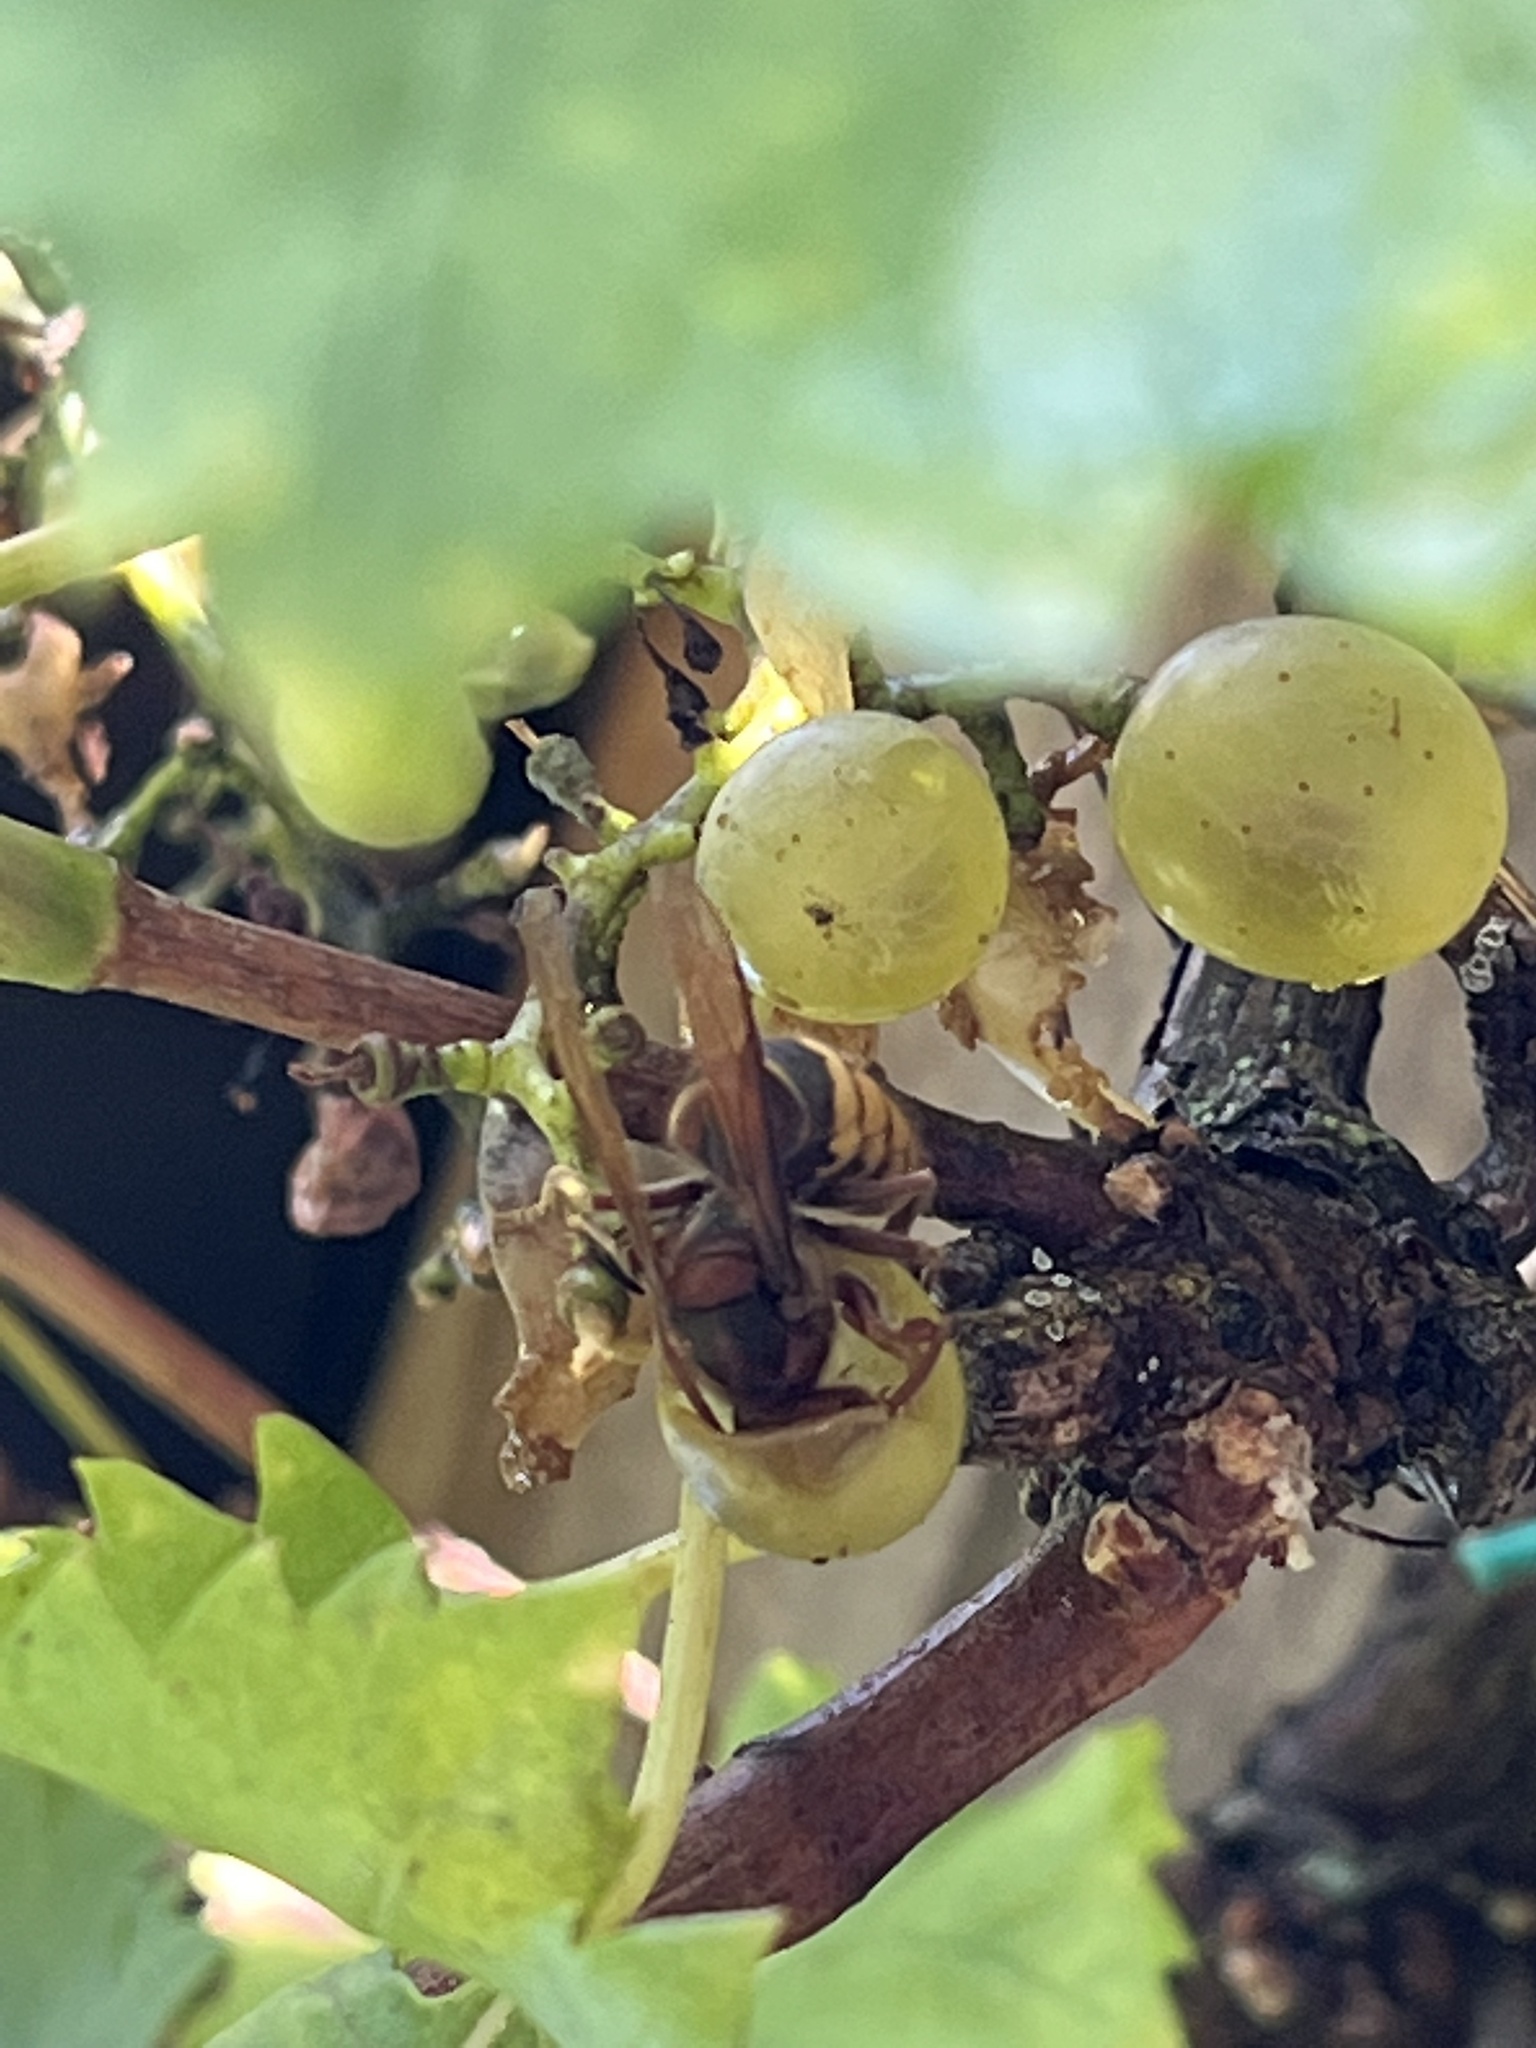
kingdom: Animalia
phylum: Arthropoda
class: Insecta
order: Hymenoptera
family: Vespidae
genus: Vespa
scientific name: Vespa crabro
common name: Hornet
